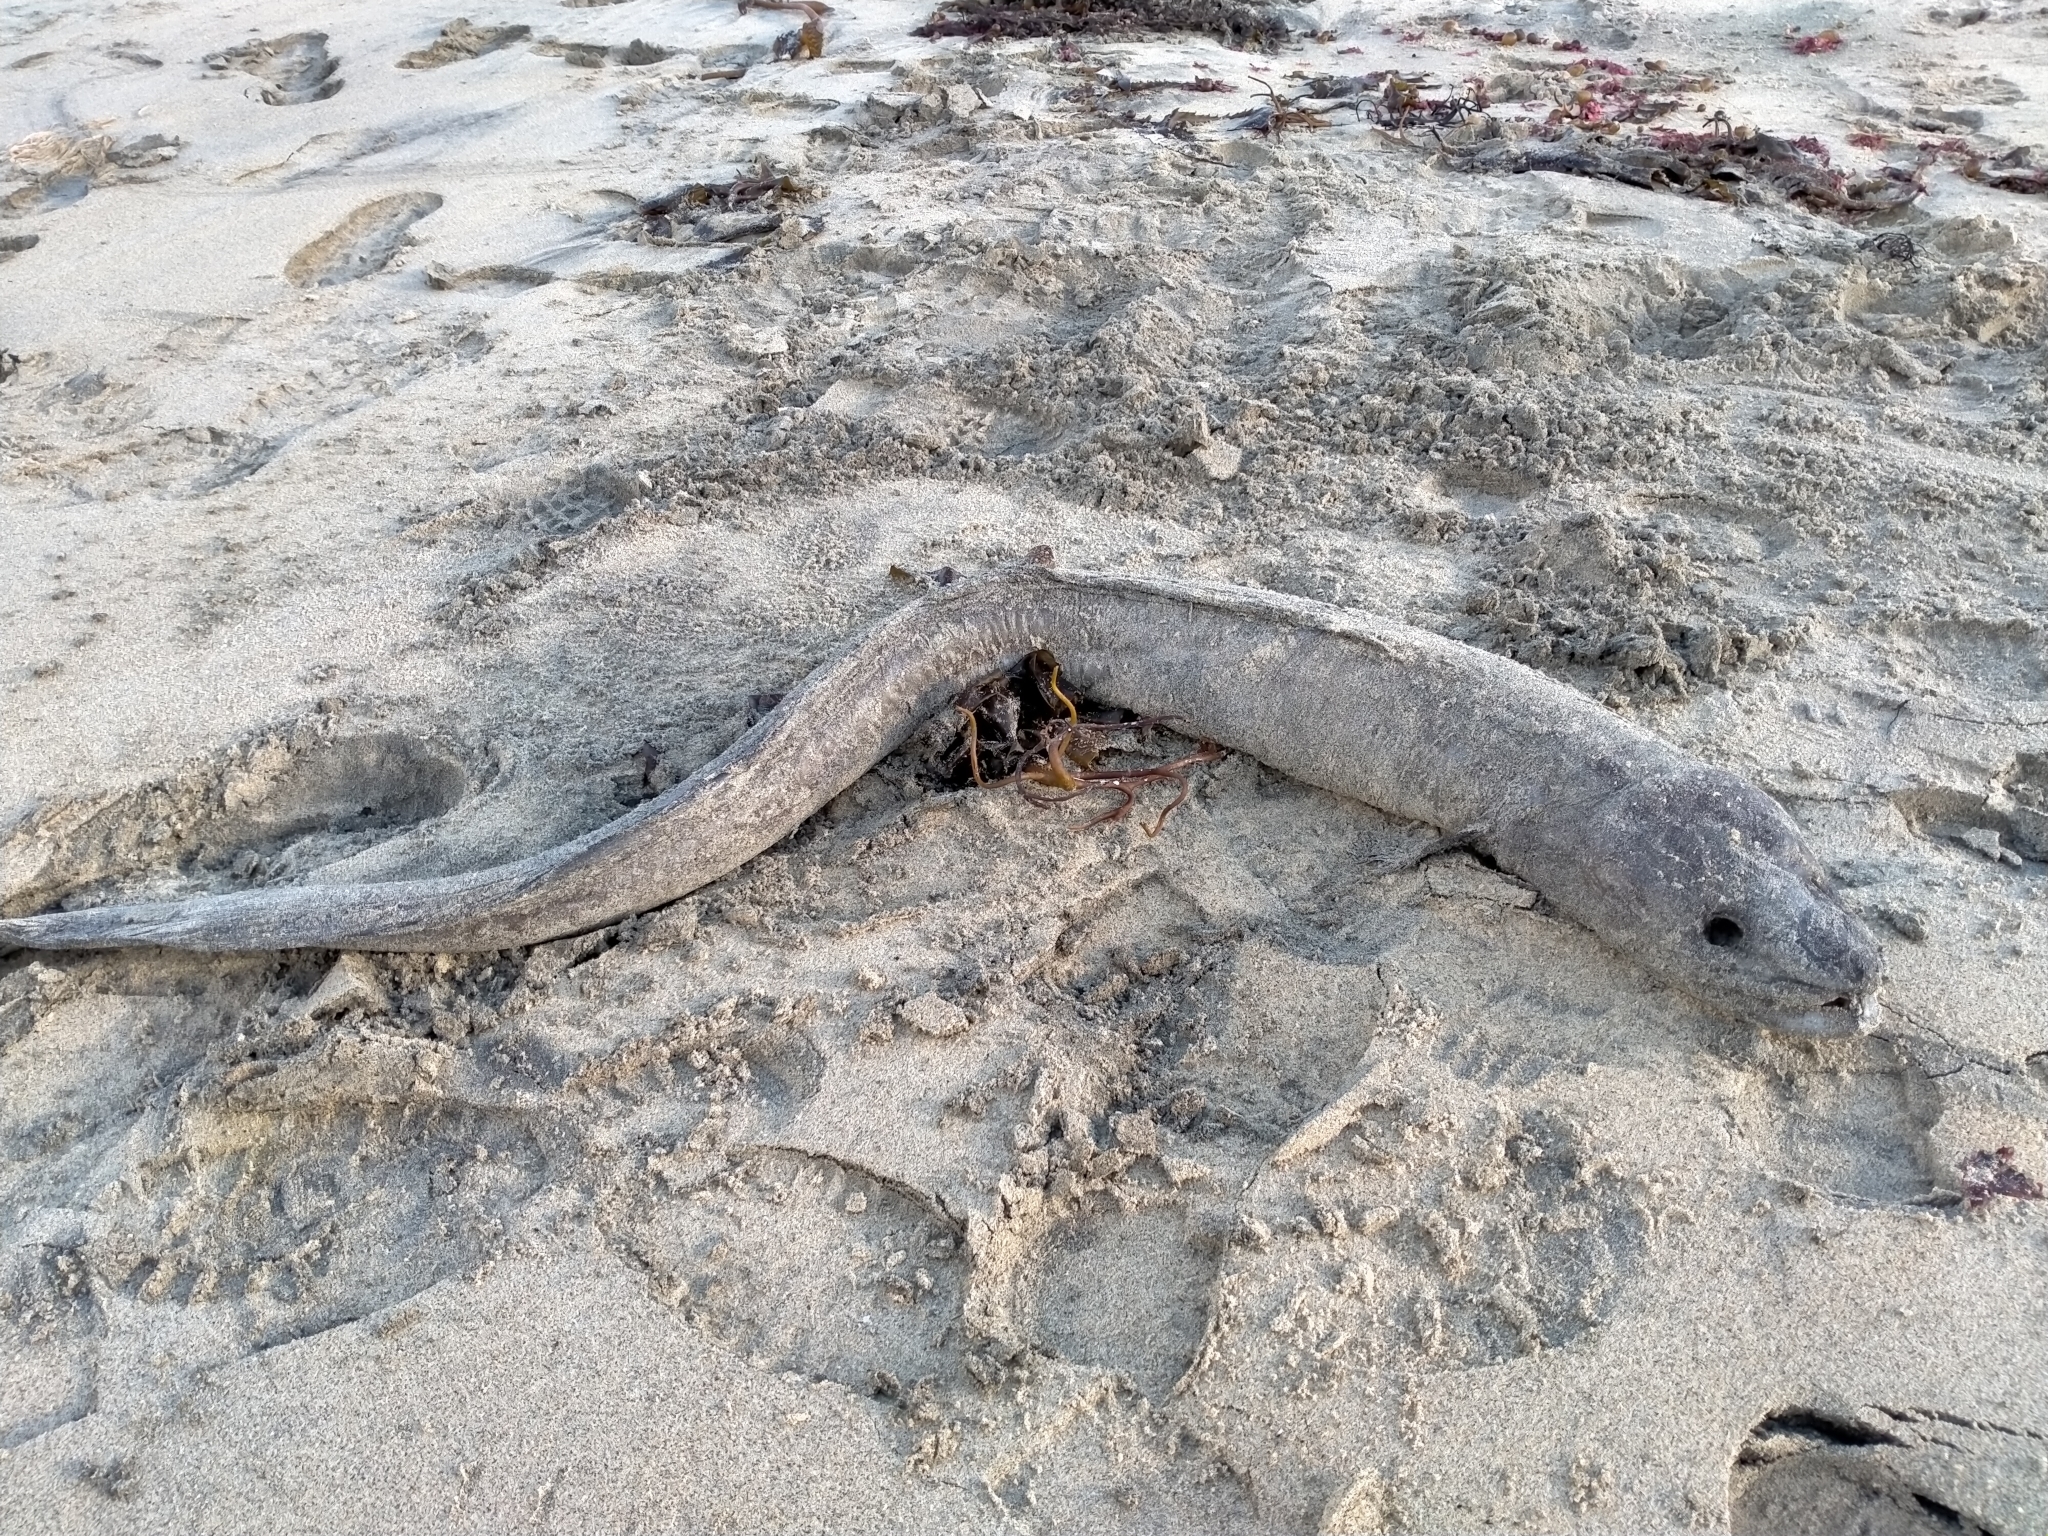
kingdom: Animalia
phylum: Chordata
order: Anguilliformes
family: Congridae
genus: Conger
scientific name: Conger verreauxi
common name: Conger eel
